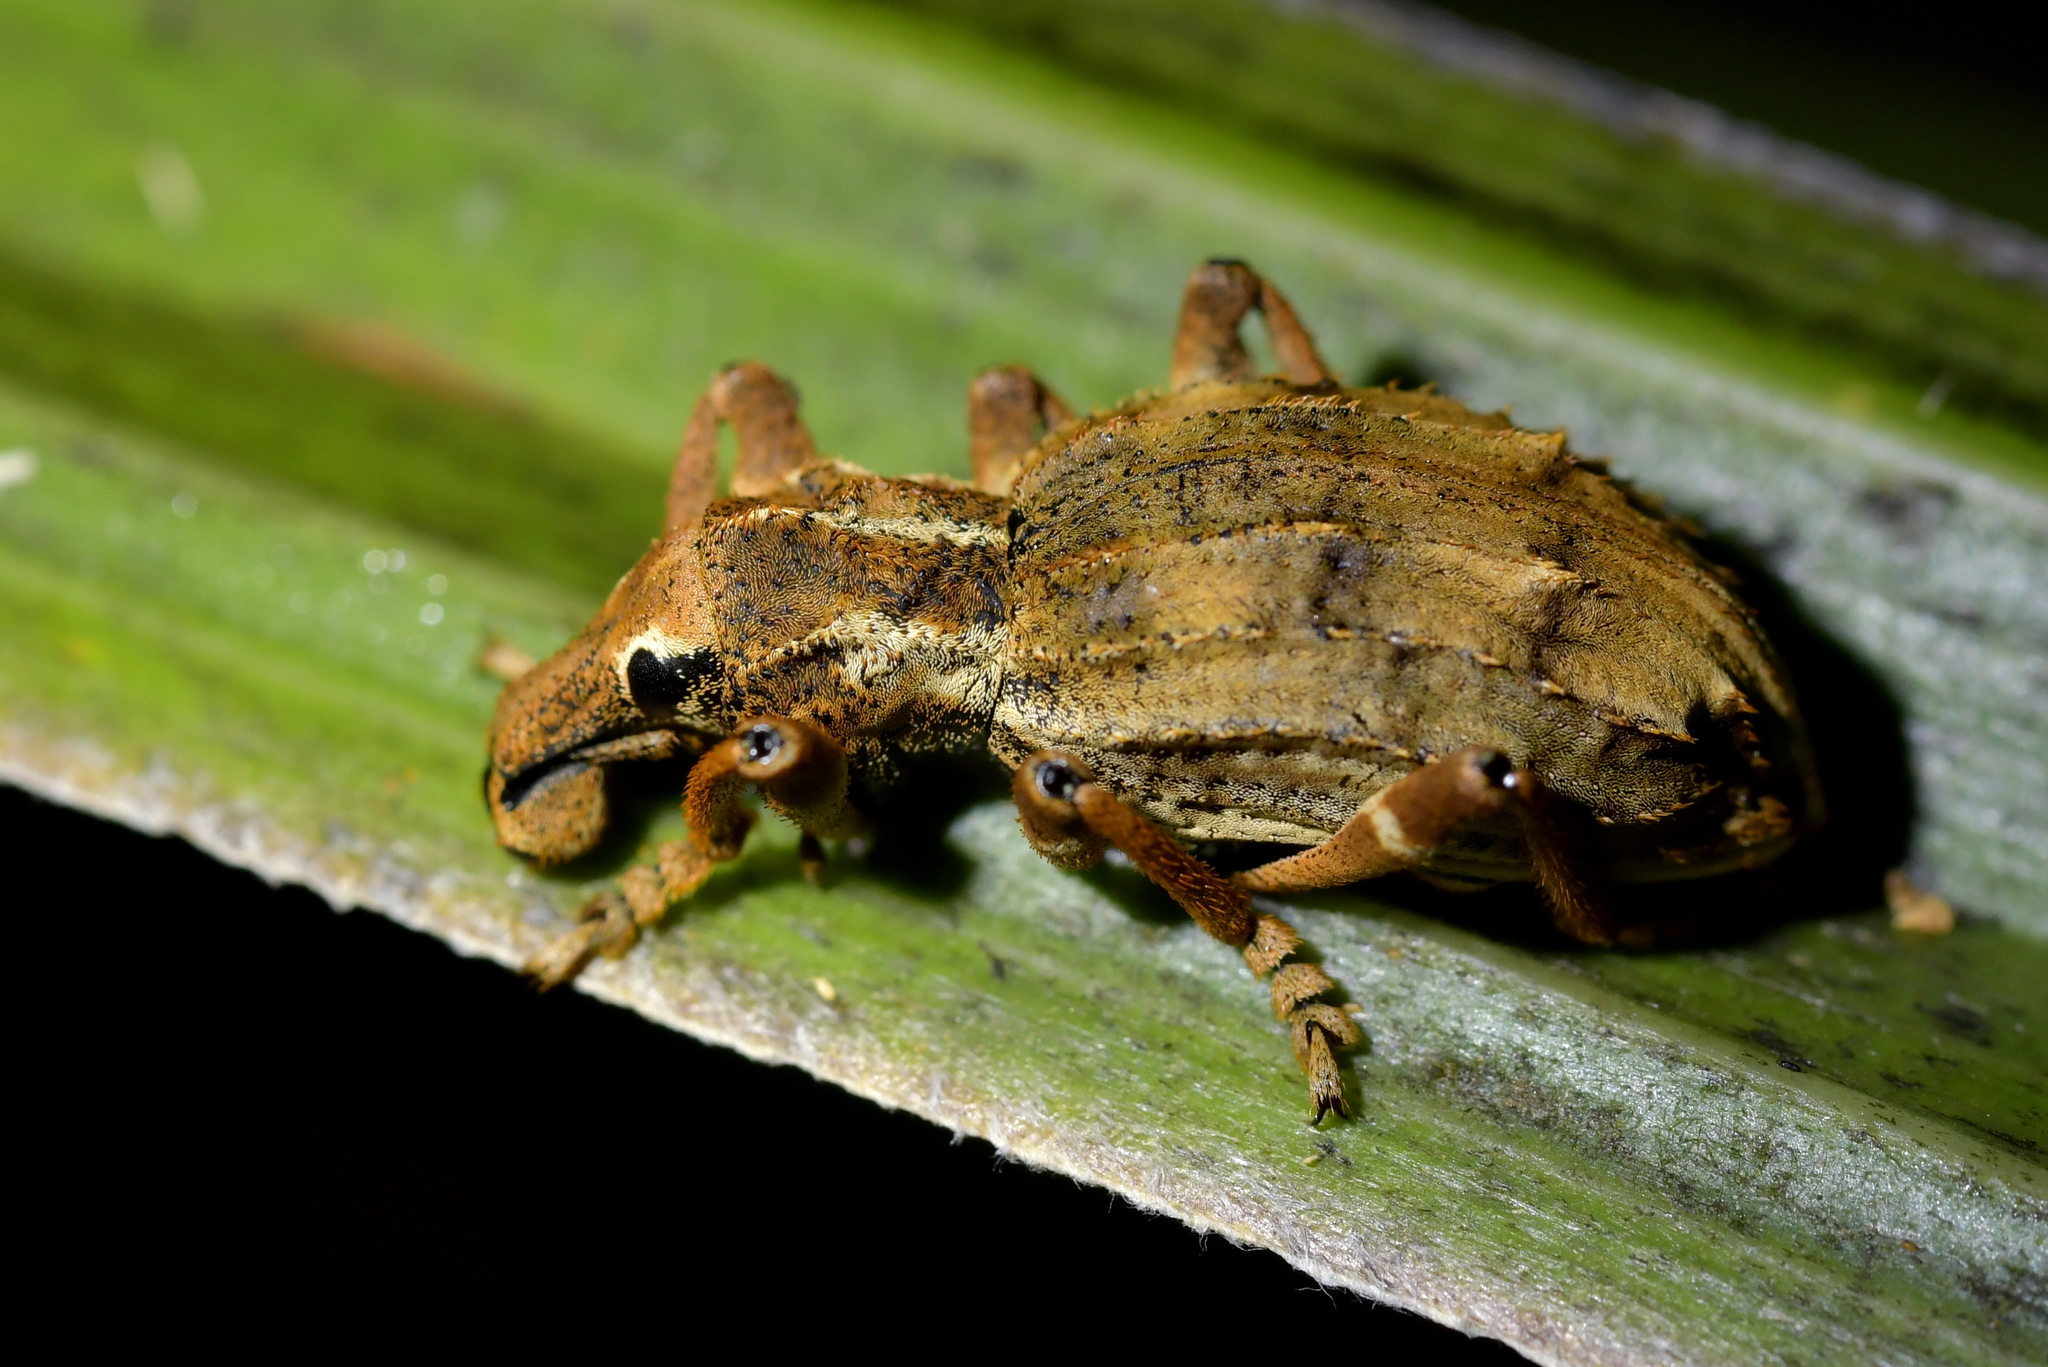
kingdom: Animalia
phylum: Arthropoda
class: Insecta
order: Coleoptera
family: Curculionidae
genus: Anagotus
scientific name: Anagotus
